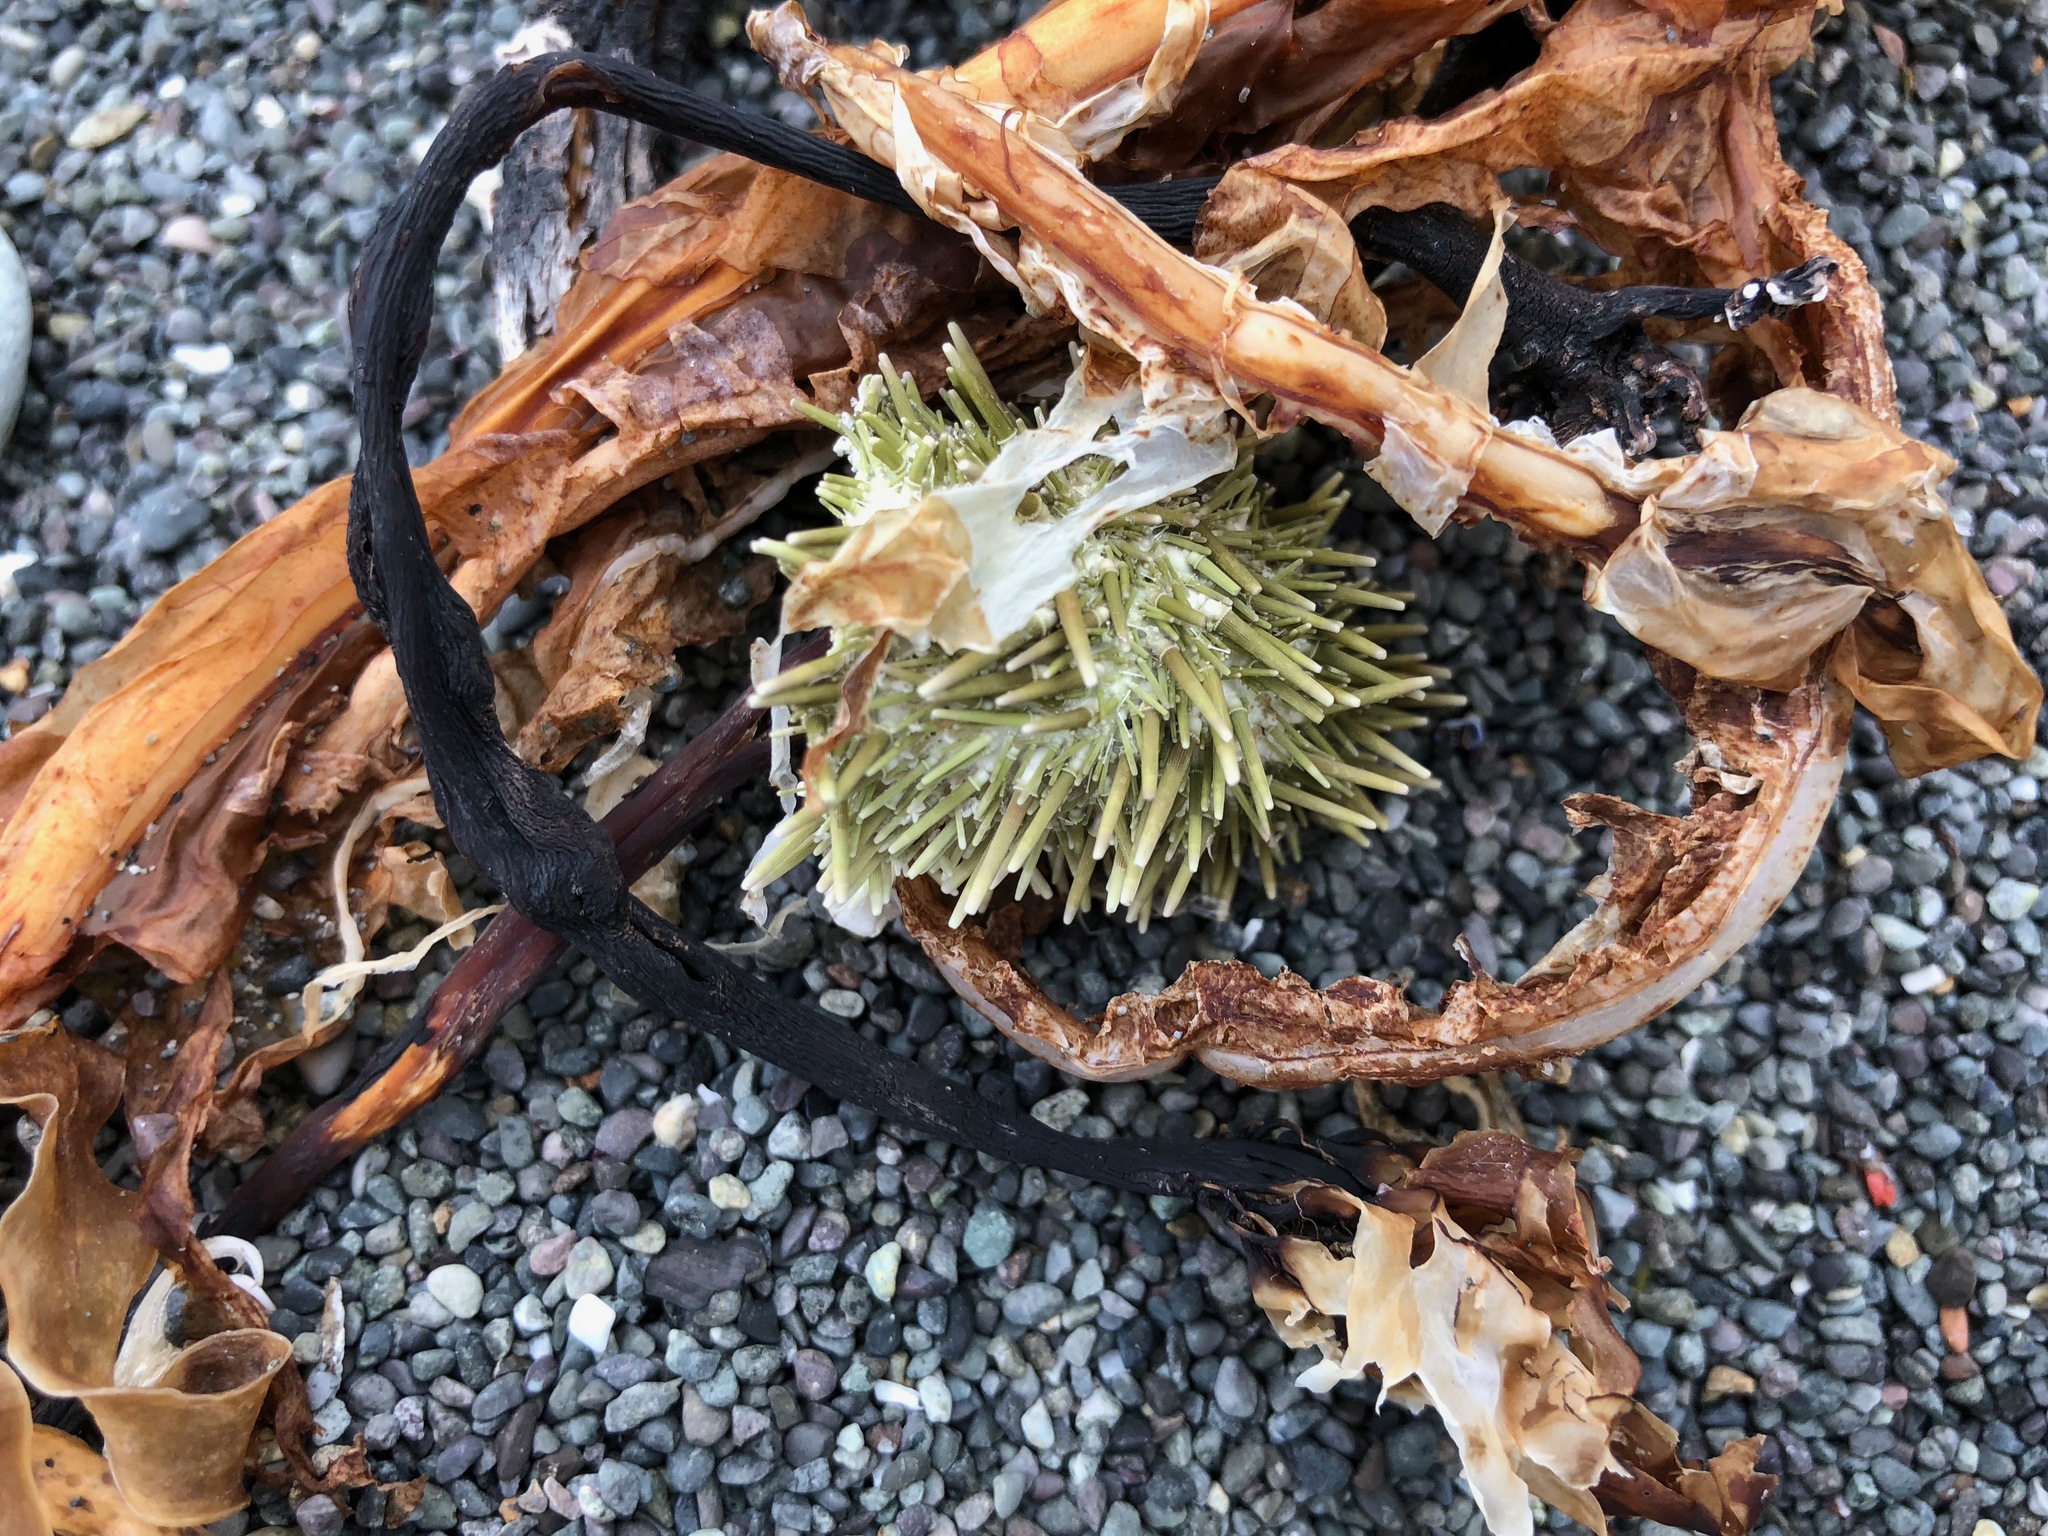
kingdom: Animalia
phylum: Echinodermata
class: Echinoidea
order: Camarodonta
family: Strongylocentrotidae
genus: Strongylocentrotus
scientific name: Strongylocentrotus droebachiensis
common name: Northern sea urchin
